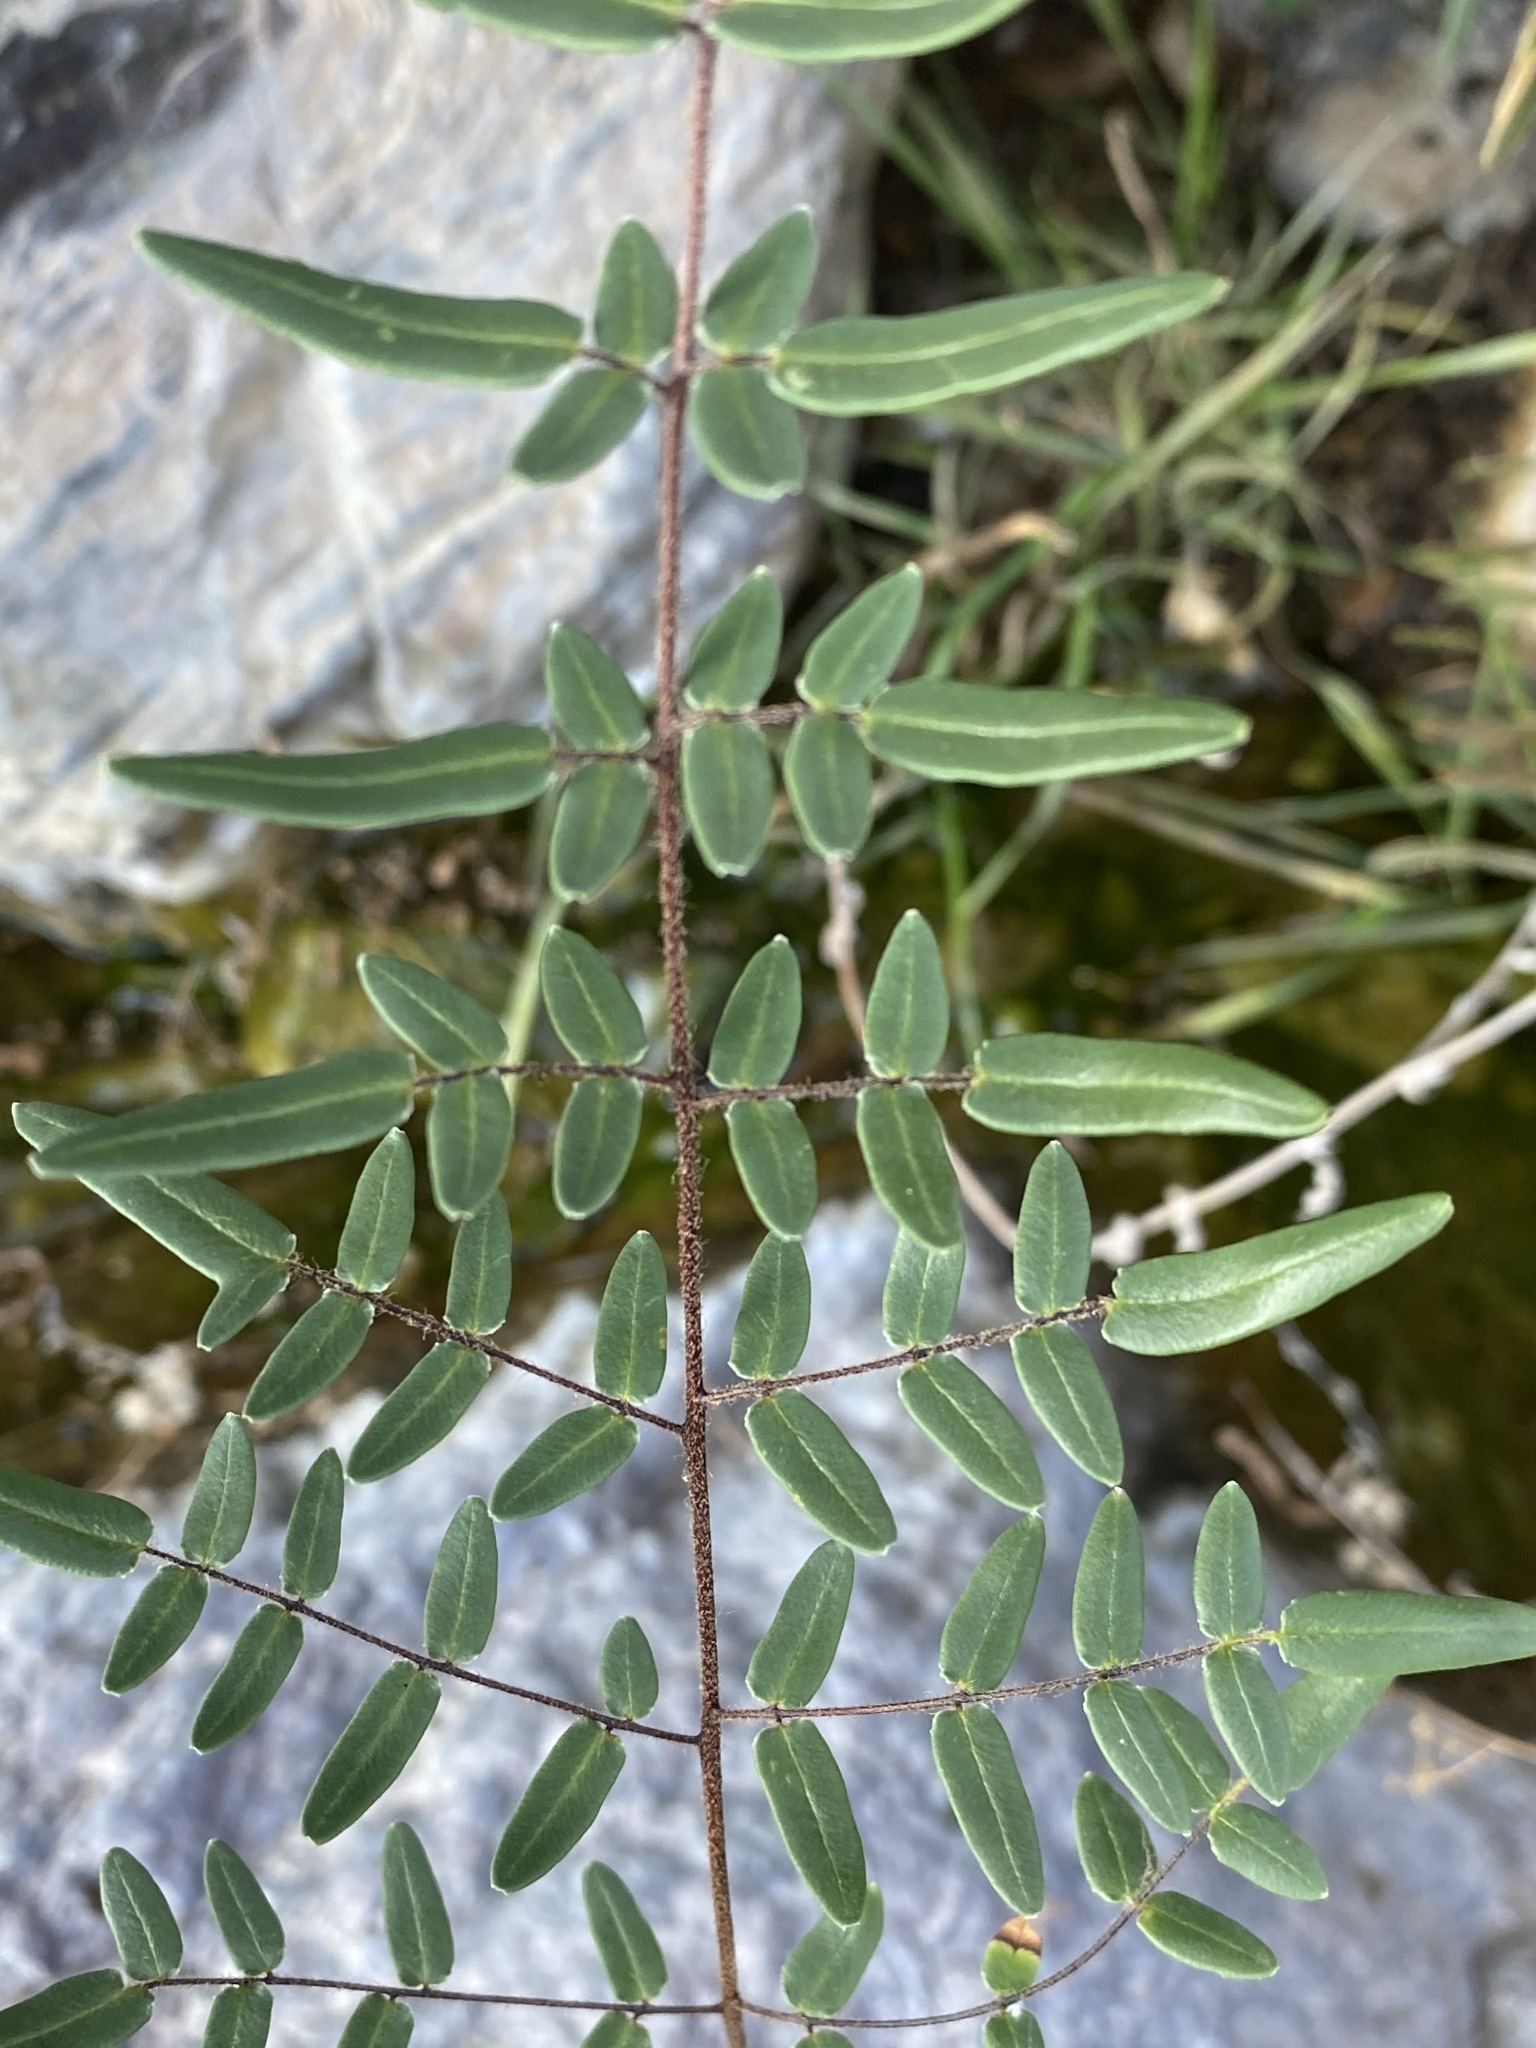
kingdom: Plantae
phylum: Tracheophyta
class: Polypodiopsida
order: Polypodiales
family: Pteridaceae
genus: Pellaea
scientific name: Pellaea atropurpurea
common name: Hairy cliffbrake
